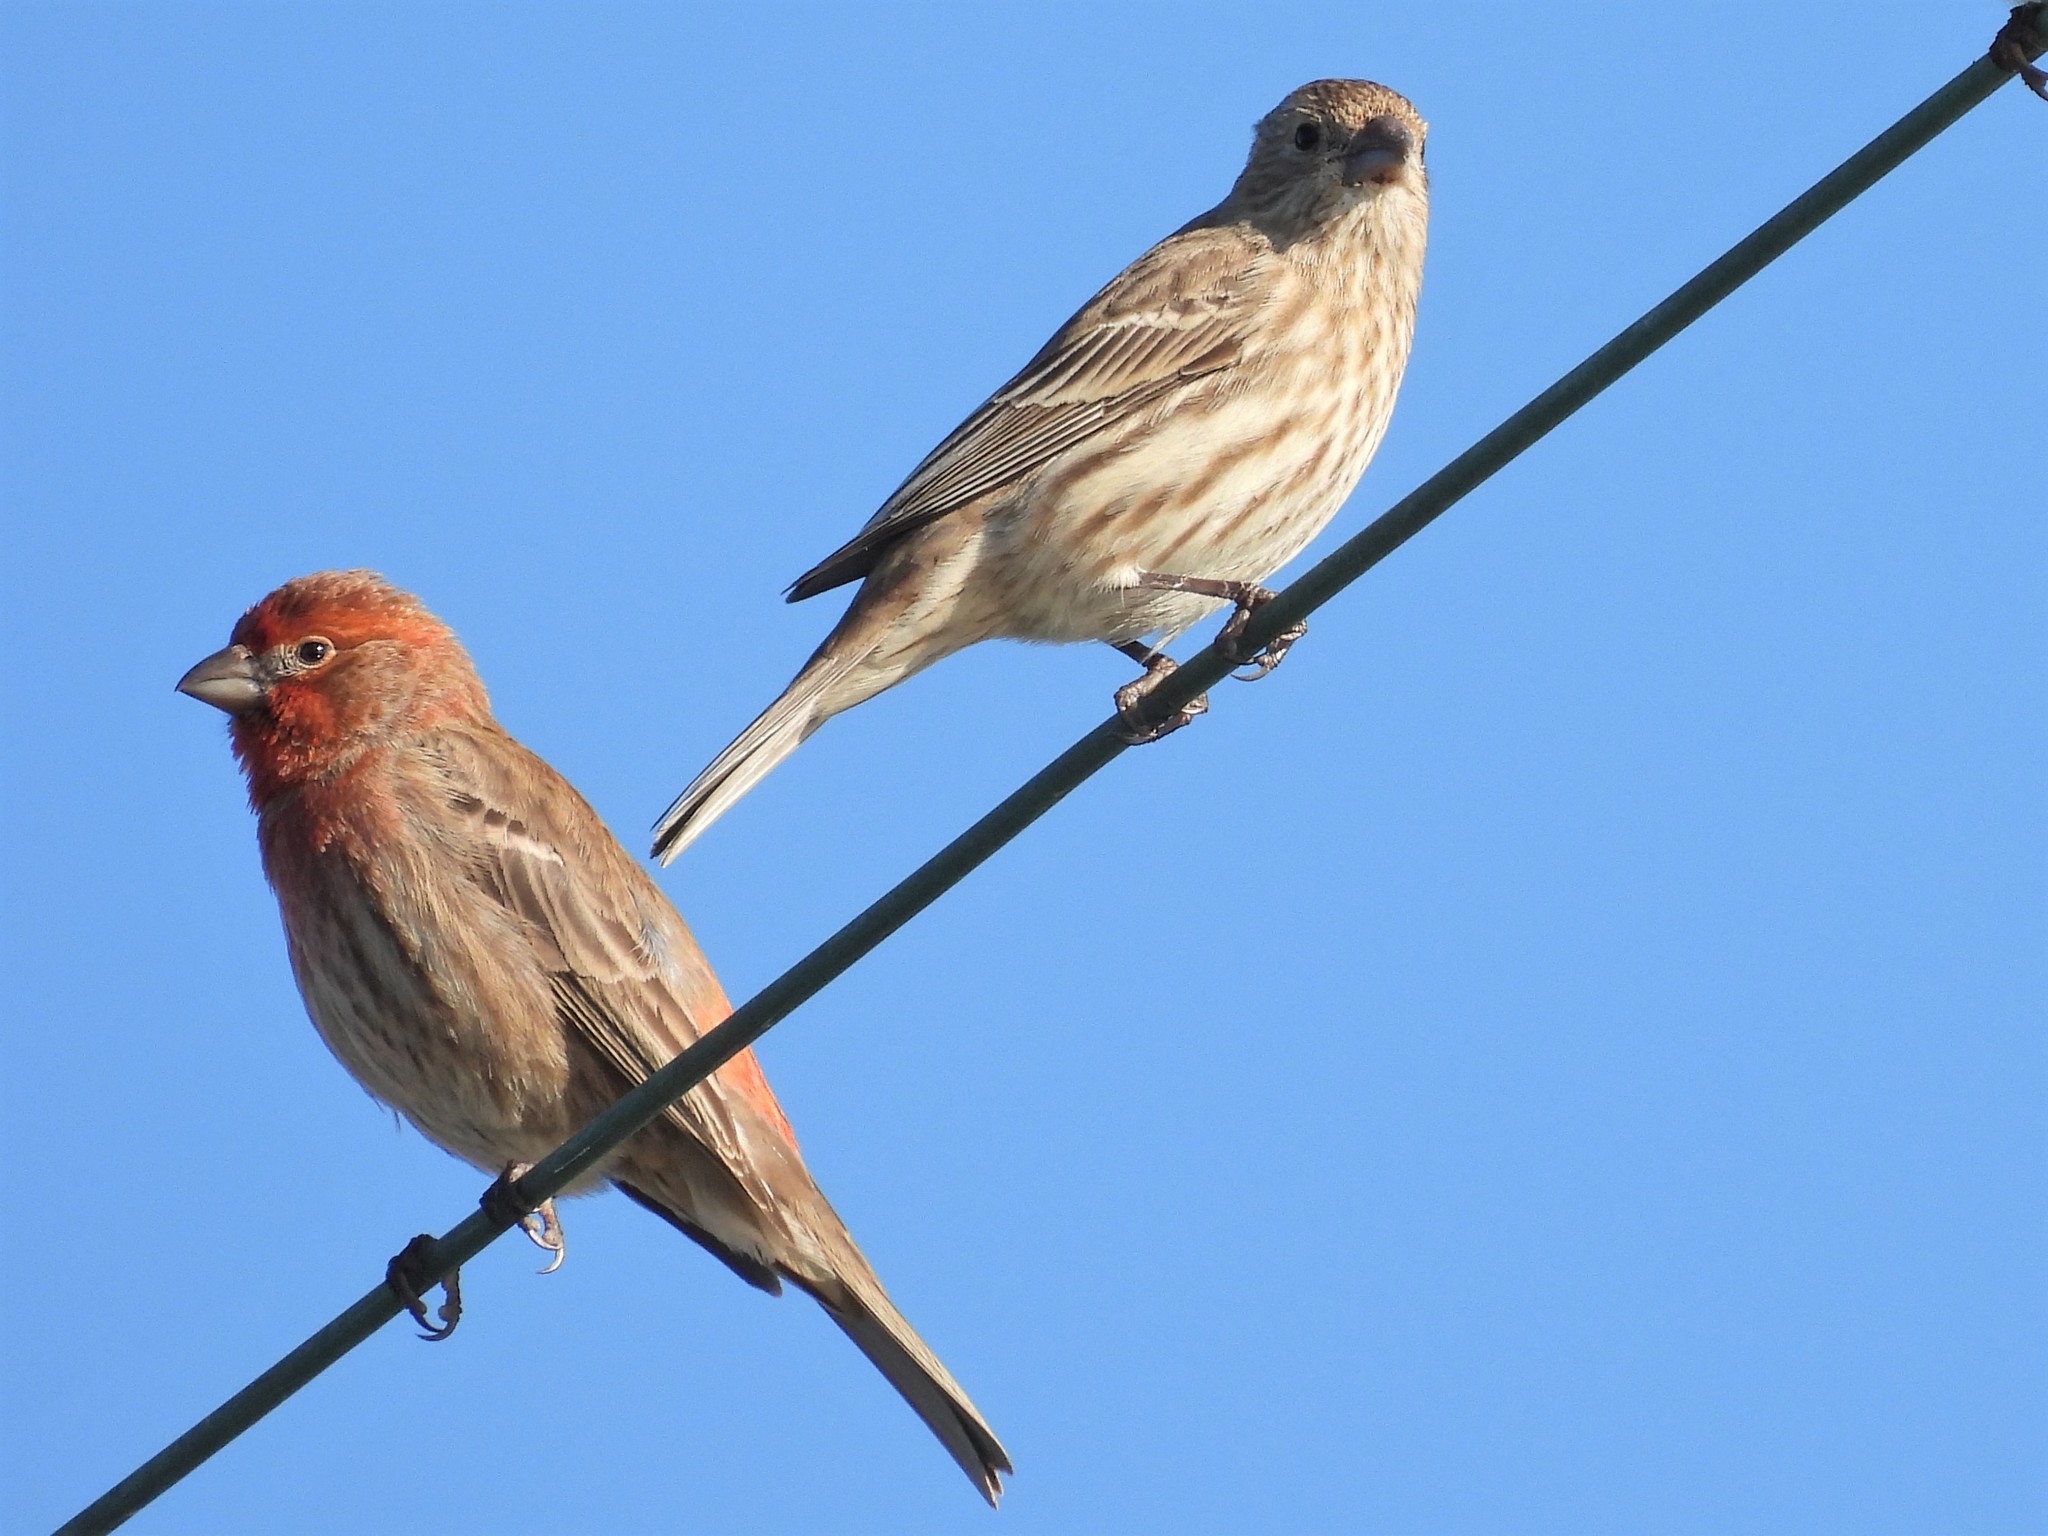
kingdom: Animalia
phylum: Chordata
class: Aves
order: Passeriformes
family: Fringillidae
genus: Haemorhous
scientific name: Haemorhous mexicanus
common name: House finch
